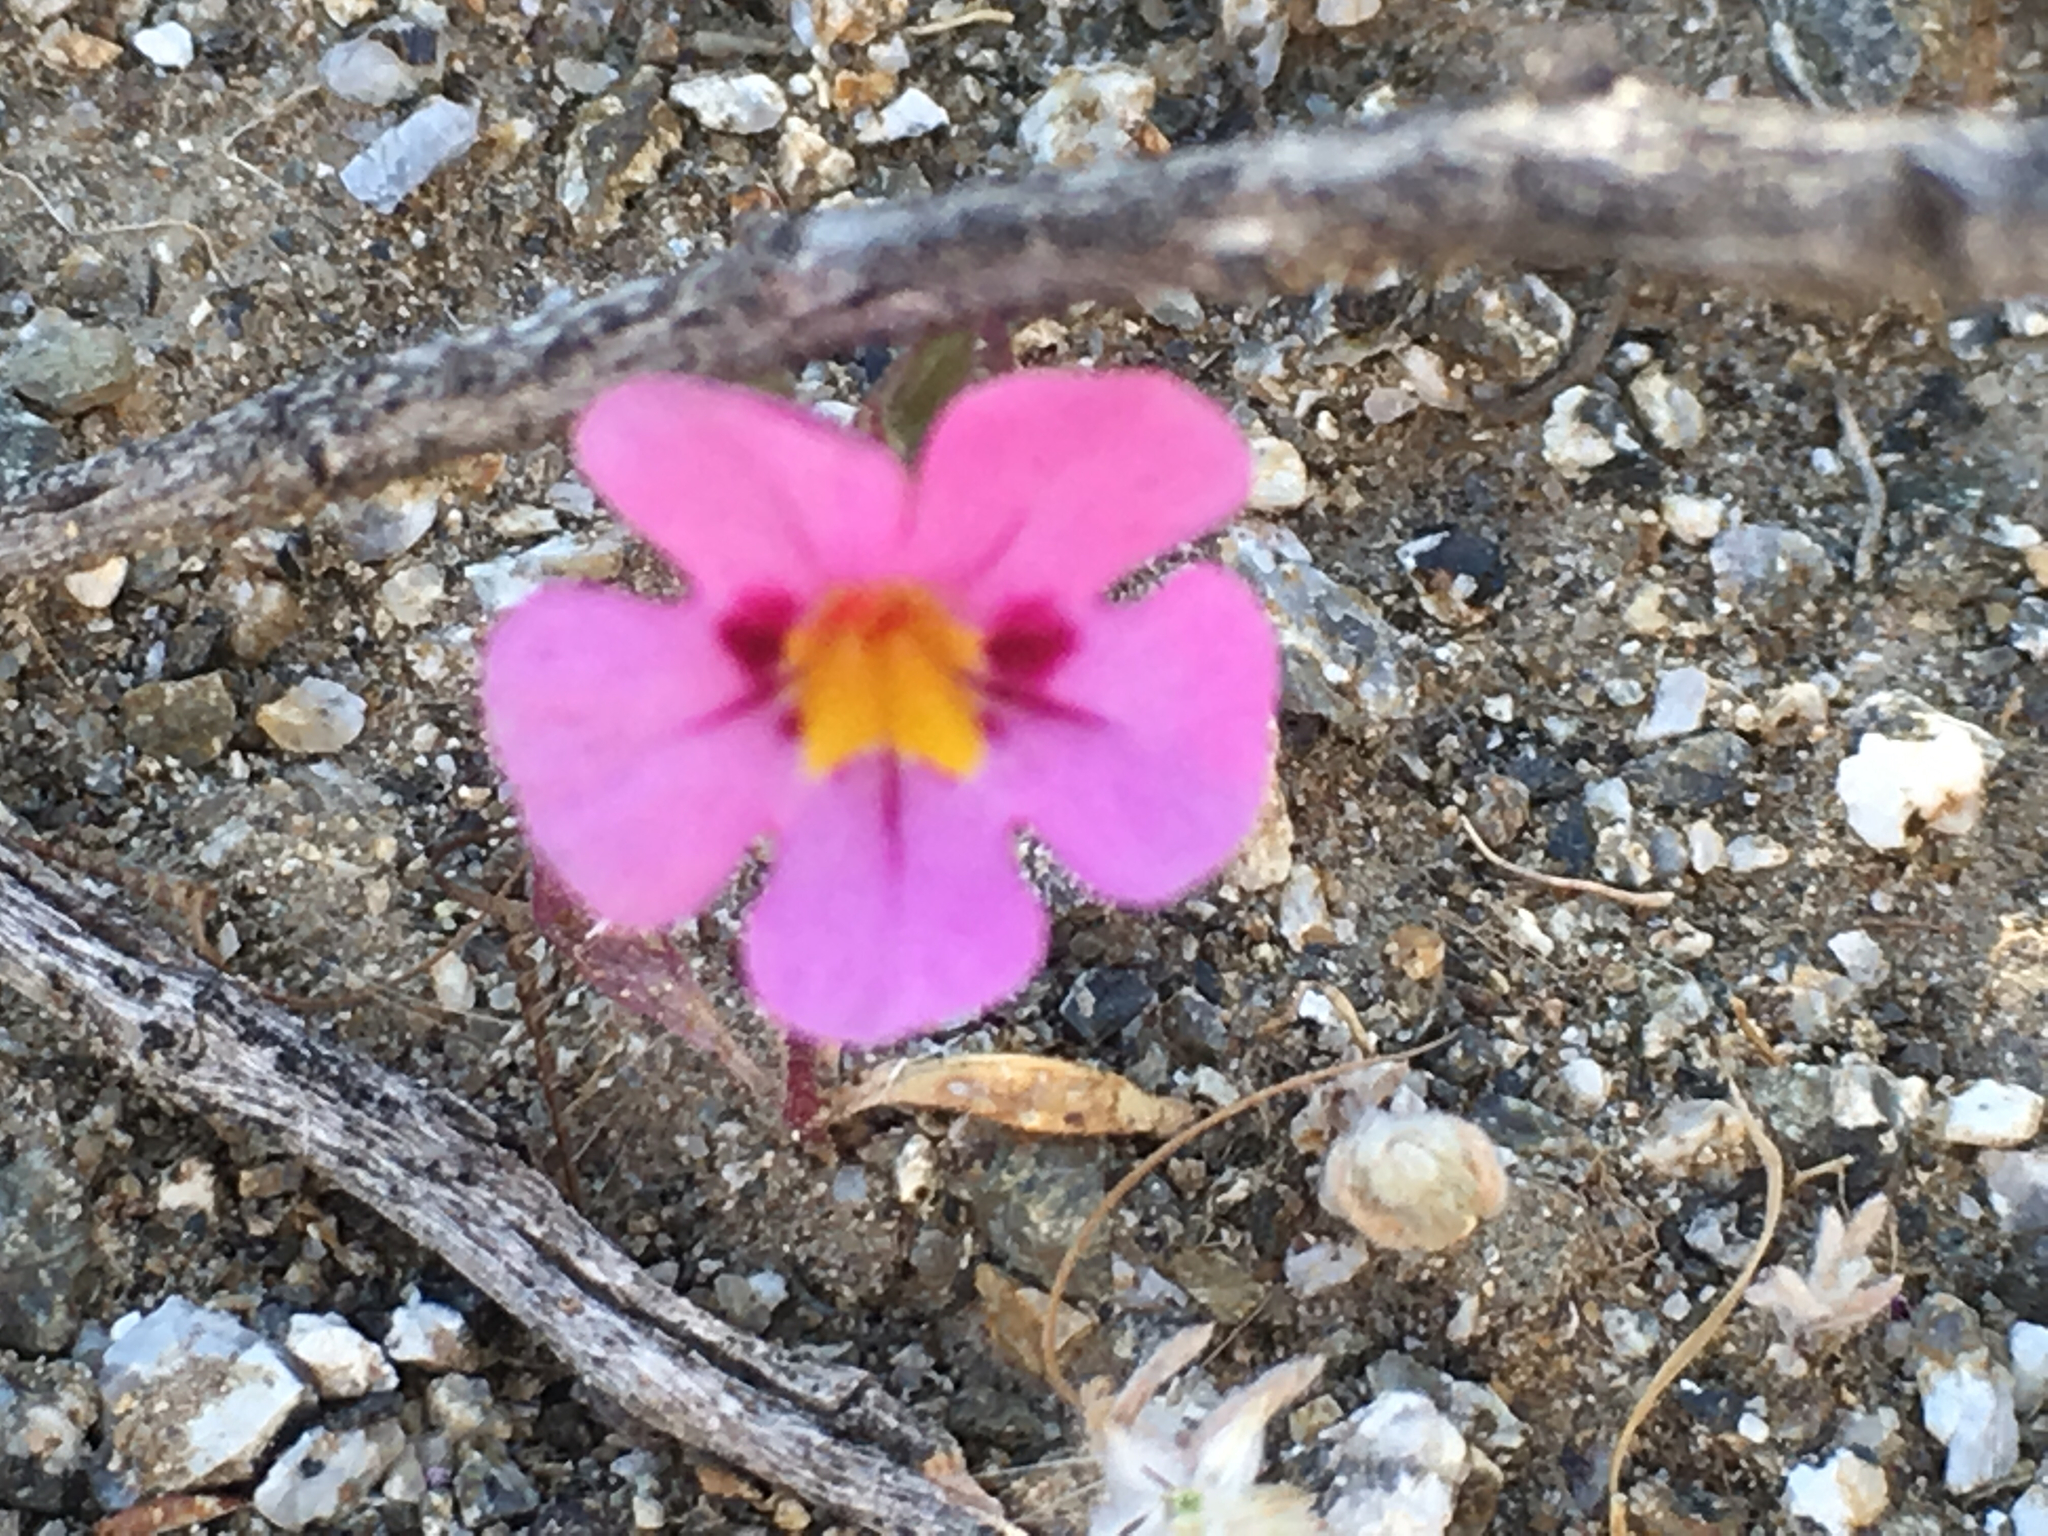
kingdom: Plantae
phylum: Tracheophyta
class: Magnoliopsida
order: Lamiales
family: Phrymaceae
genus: Diplacus
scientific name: Diplacus bigelovii
